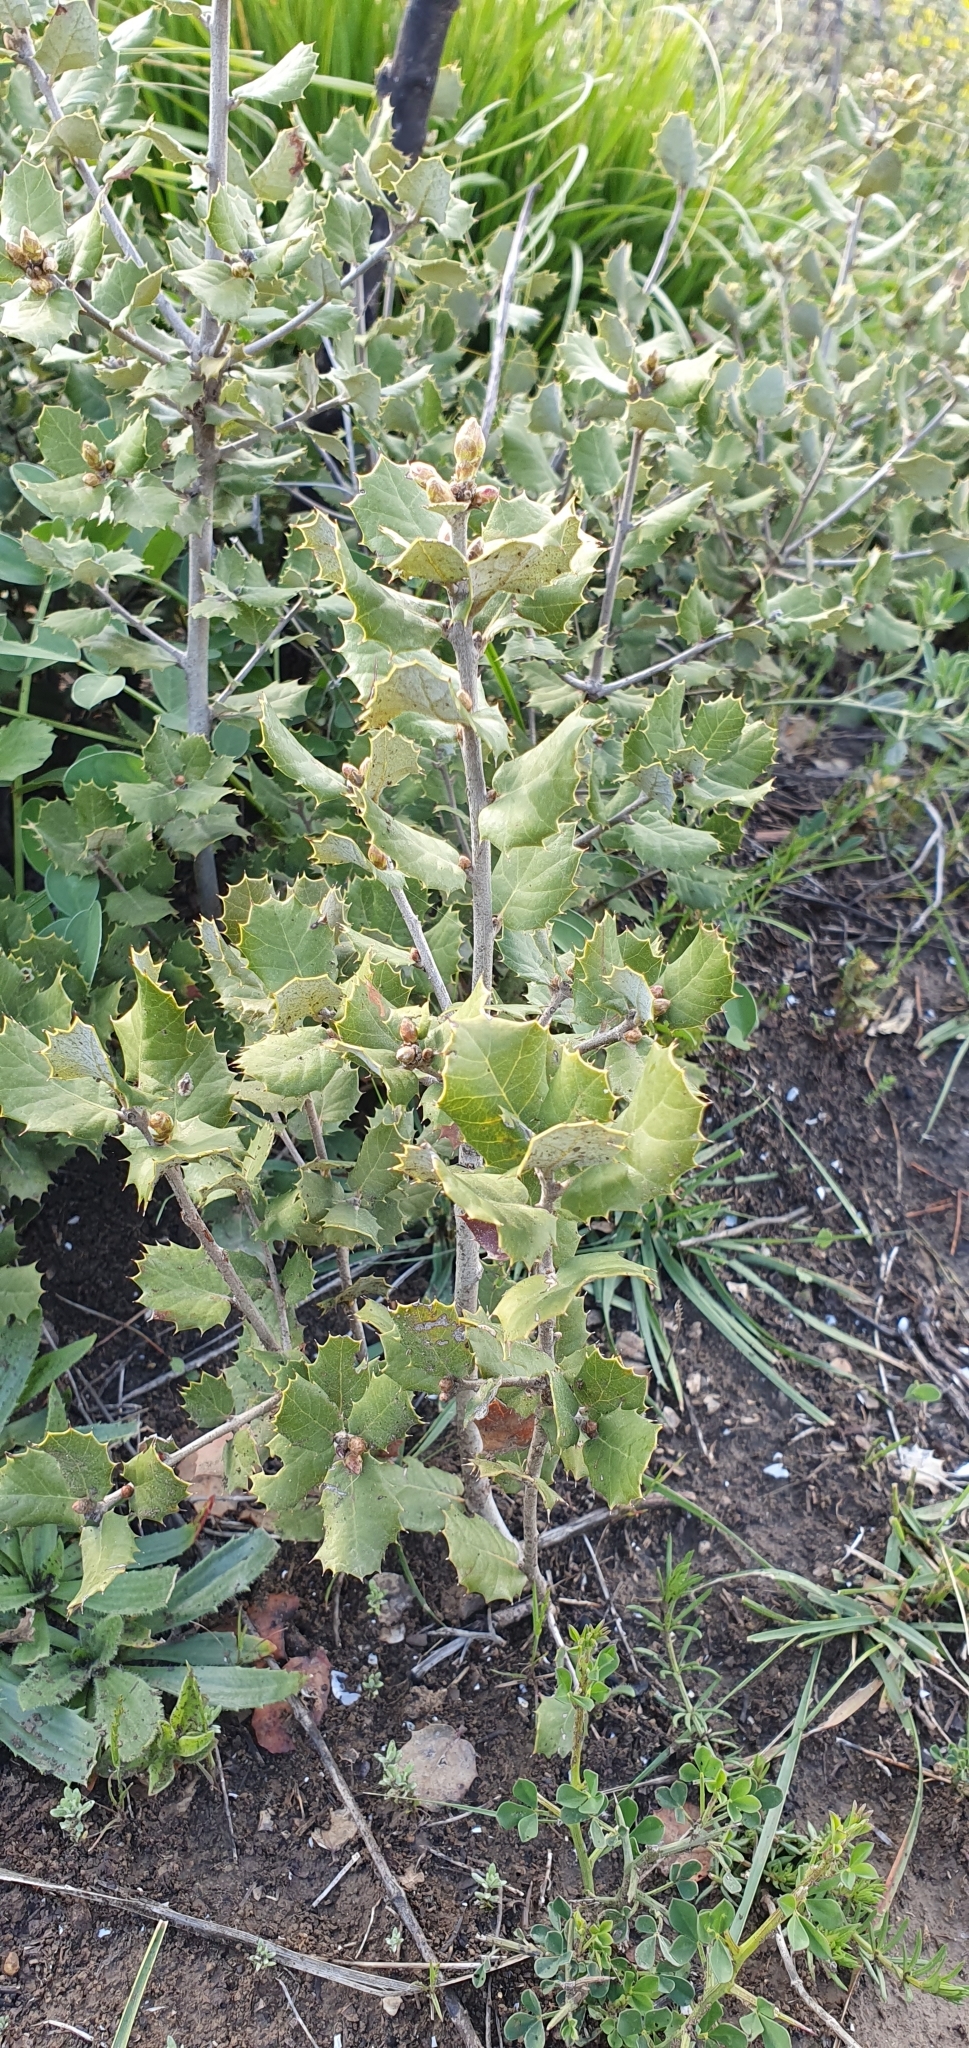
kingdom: Plantae
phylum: Tracheophyta
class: Magnoliopsida
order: Fagales
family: Fagaceae
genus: Quercus
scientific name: Quercus rotundifolia
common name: Holm oak
